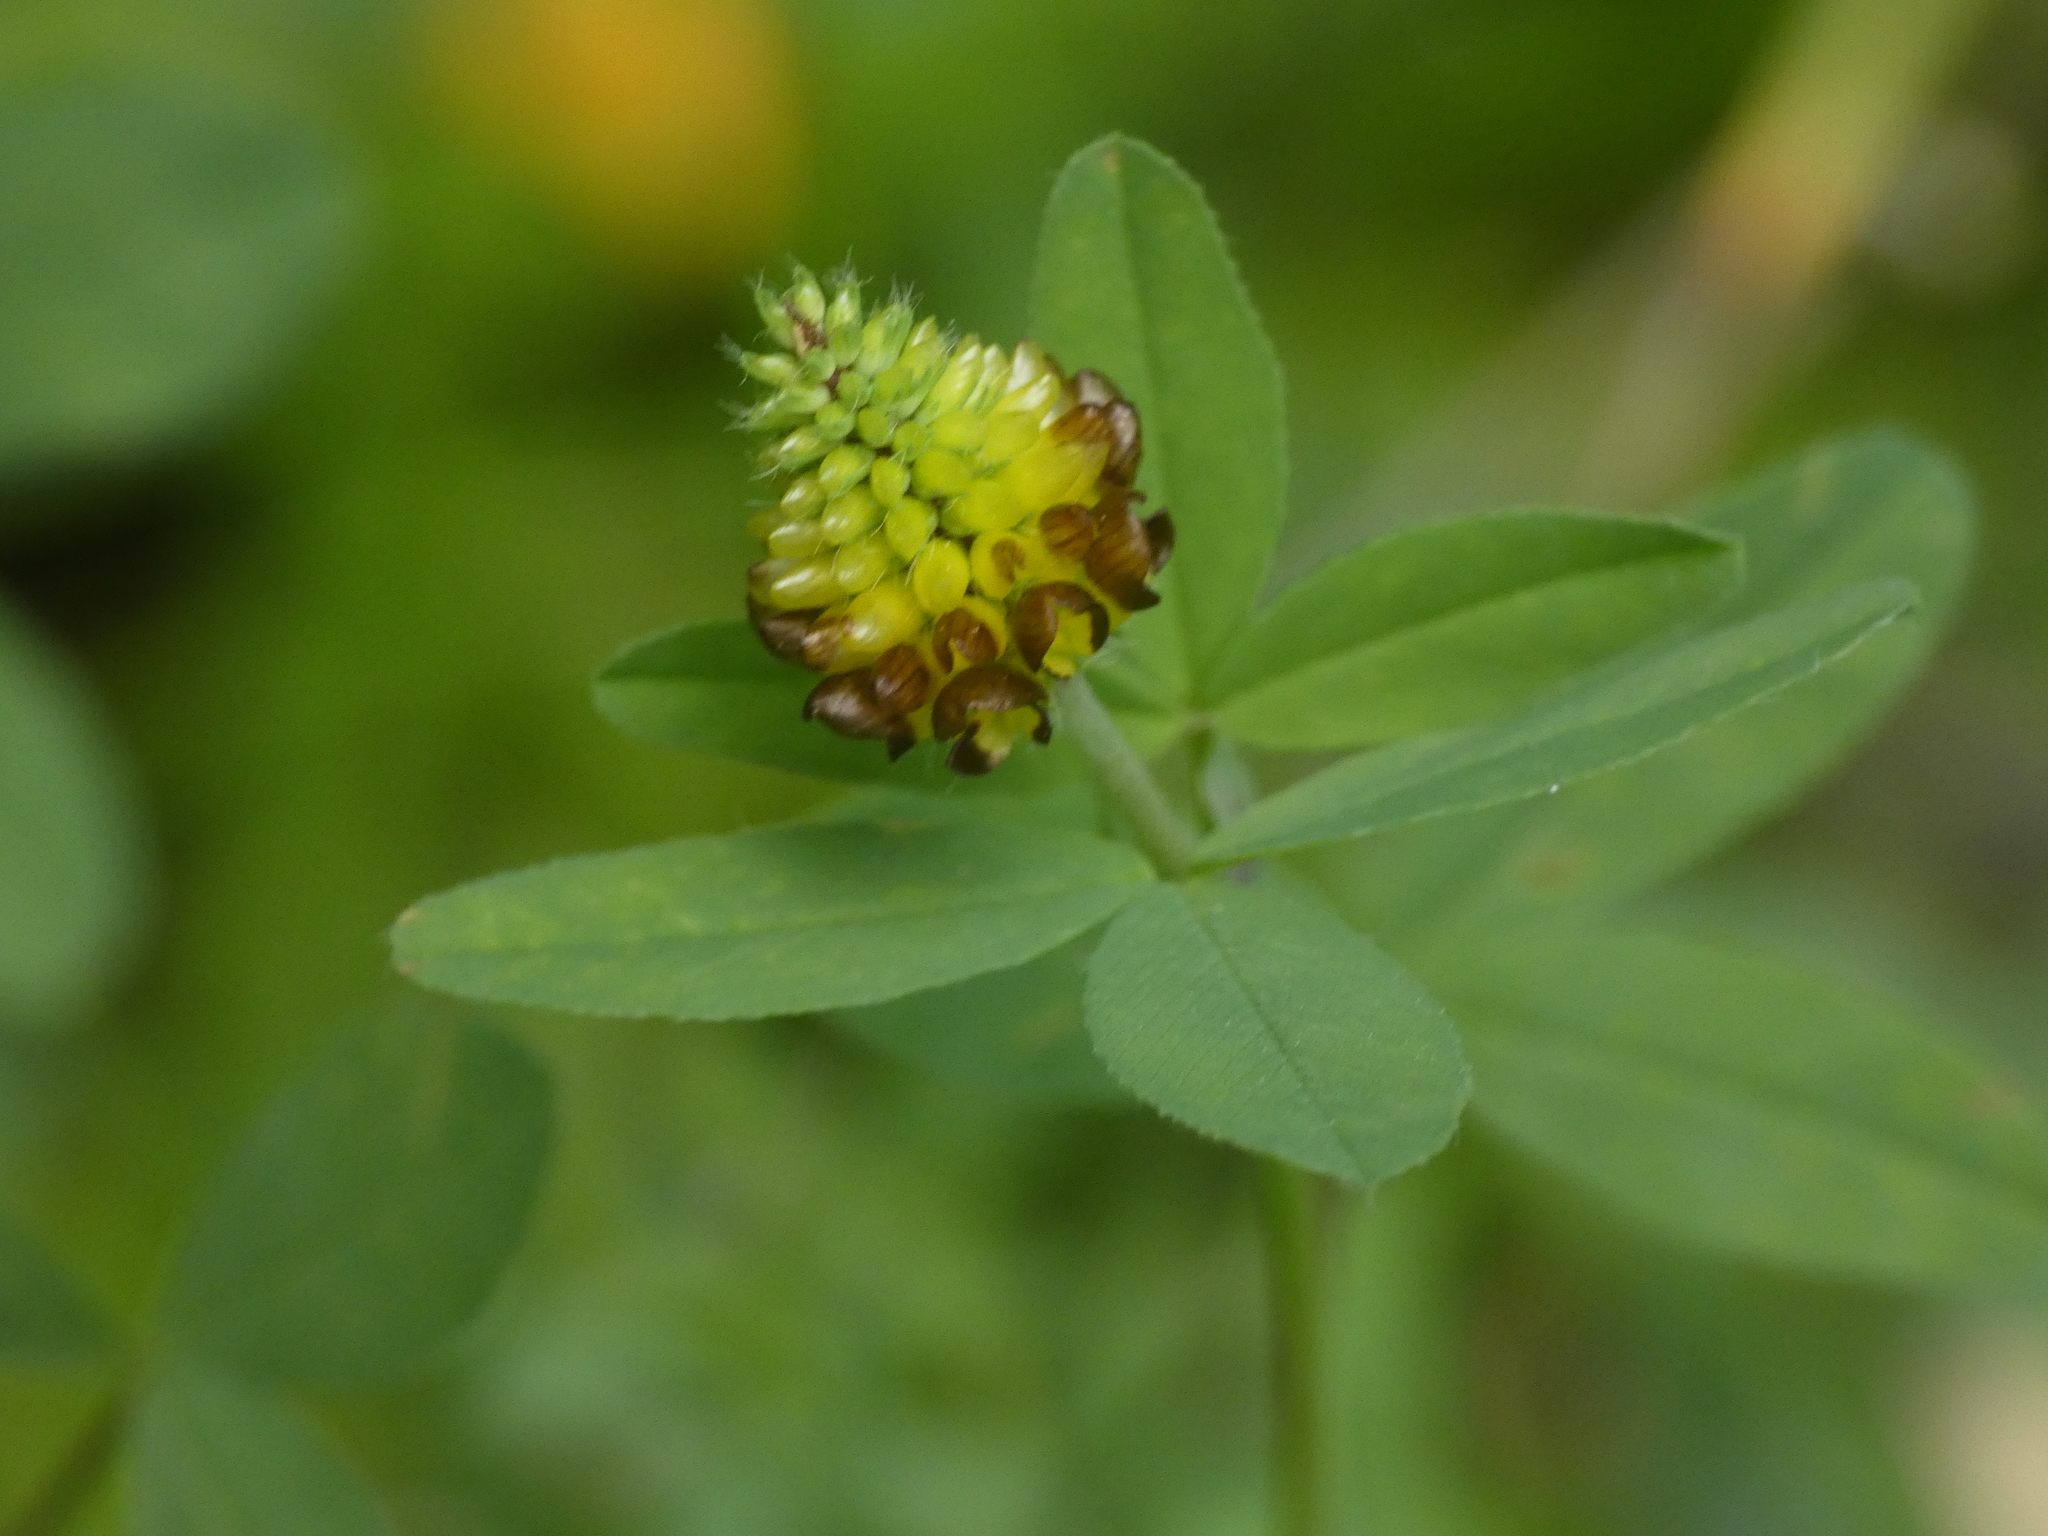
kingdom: Plantae
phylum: Tracheophyta
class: Magnoliopsida
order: Fabales
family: Fabaceae
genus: Trifolium
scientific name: Trifolium spadiceum
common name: Brown moor clover
